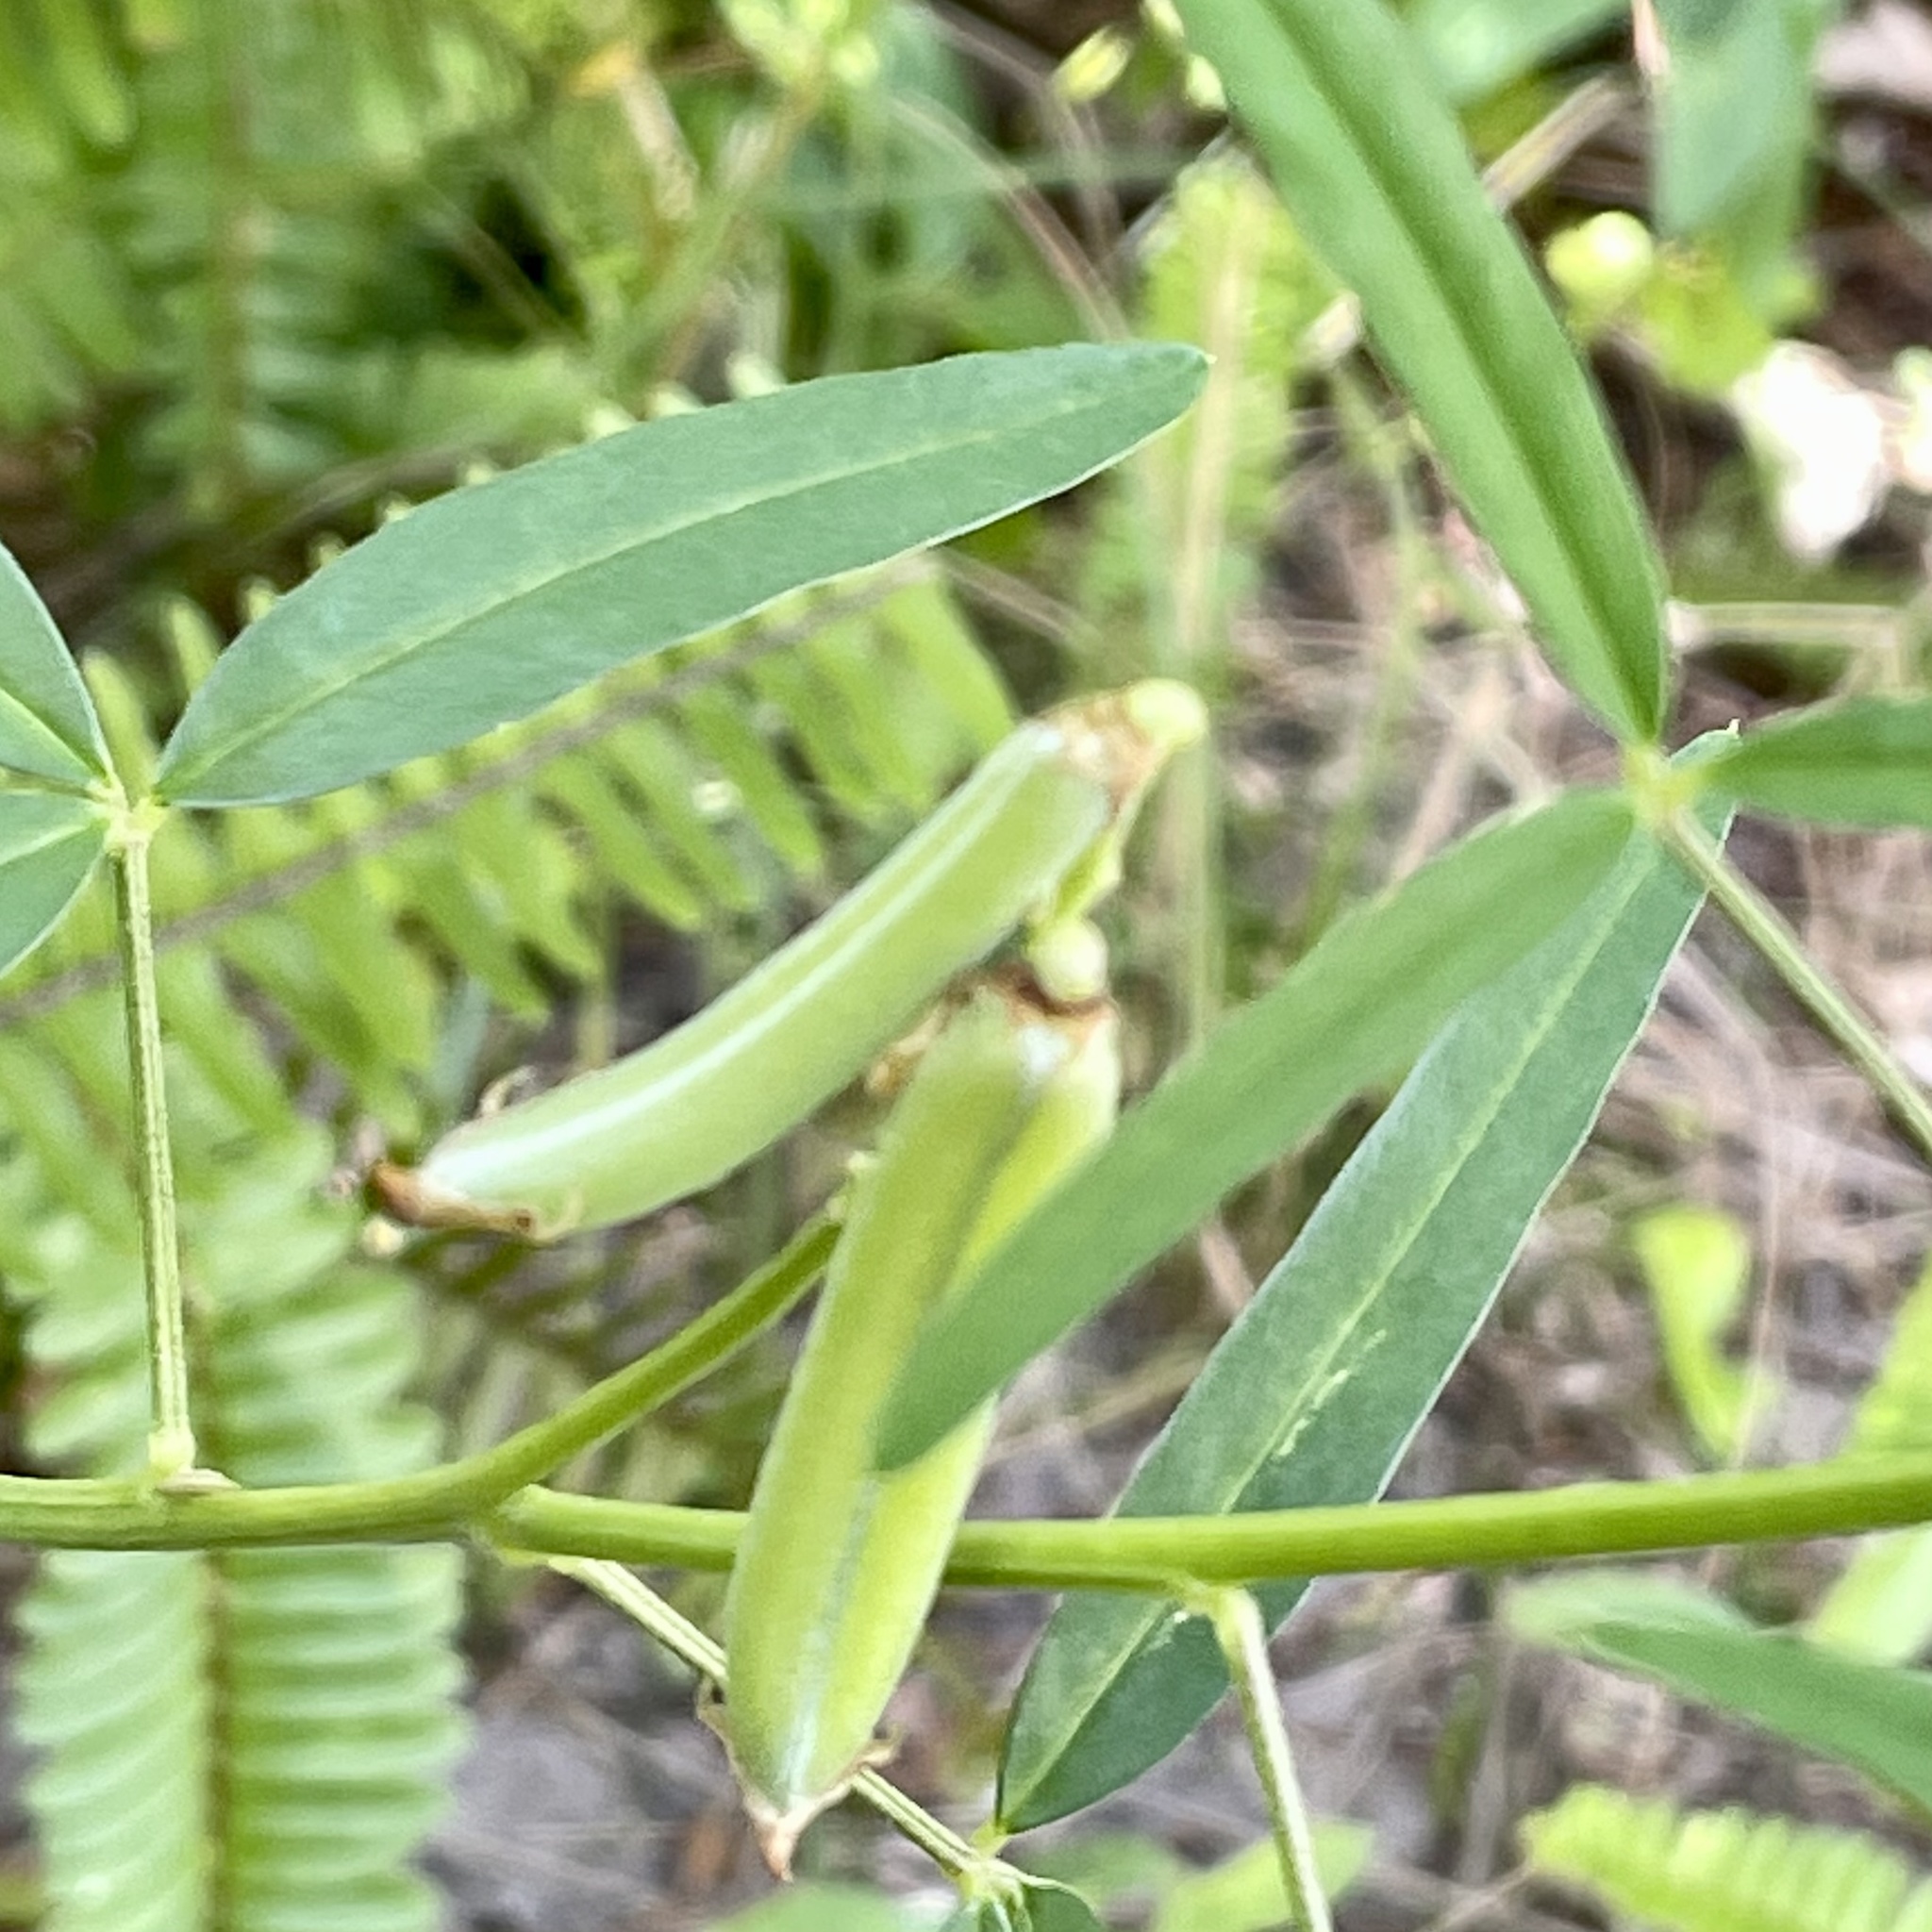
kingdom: Plantae
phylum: Tracheophyta
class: Magnoliopsida
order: Fabales
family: Fabaceae
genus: Crotalaria
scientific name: Crotalaria lanceolata
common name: Lanceleaf rattlebox
